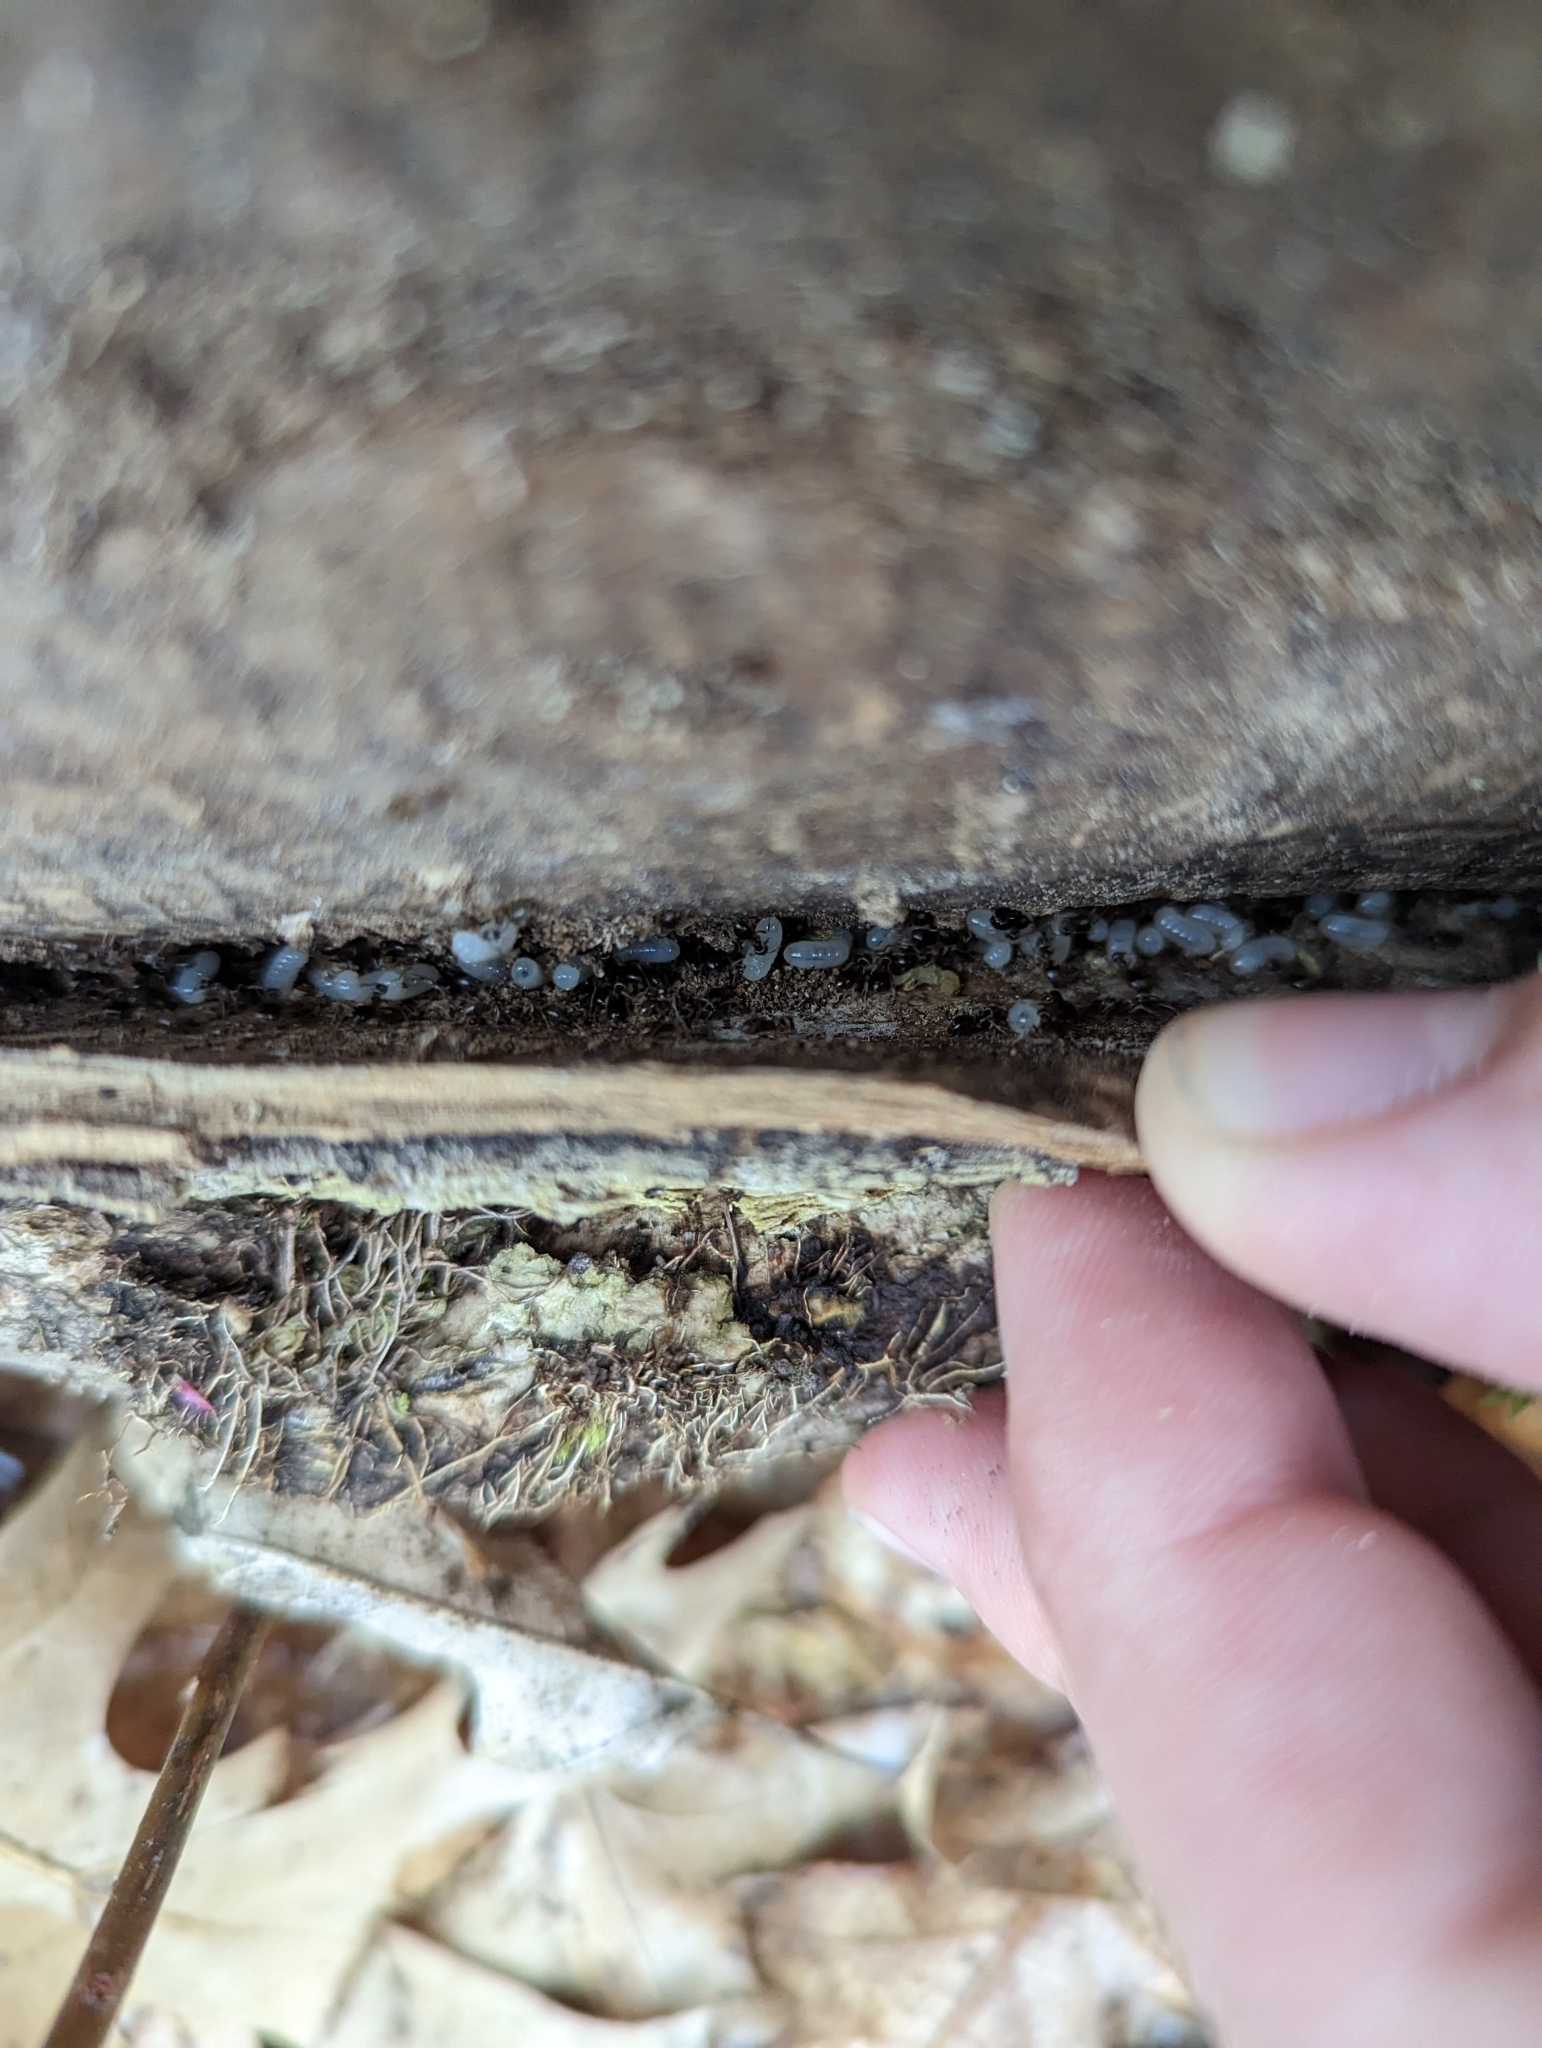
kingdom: Animalia
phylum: Arthropoda
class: Insecta
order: Hymenoptera
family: Formicidae
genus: Lasius
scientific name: Lasius americanus
